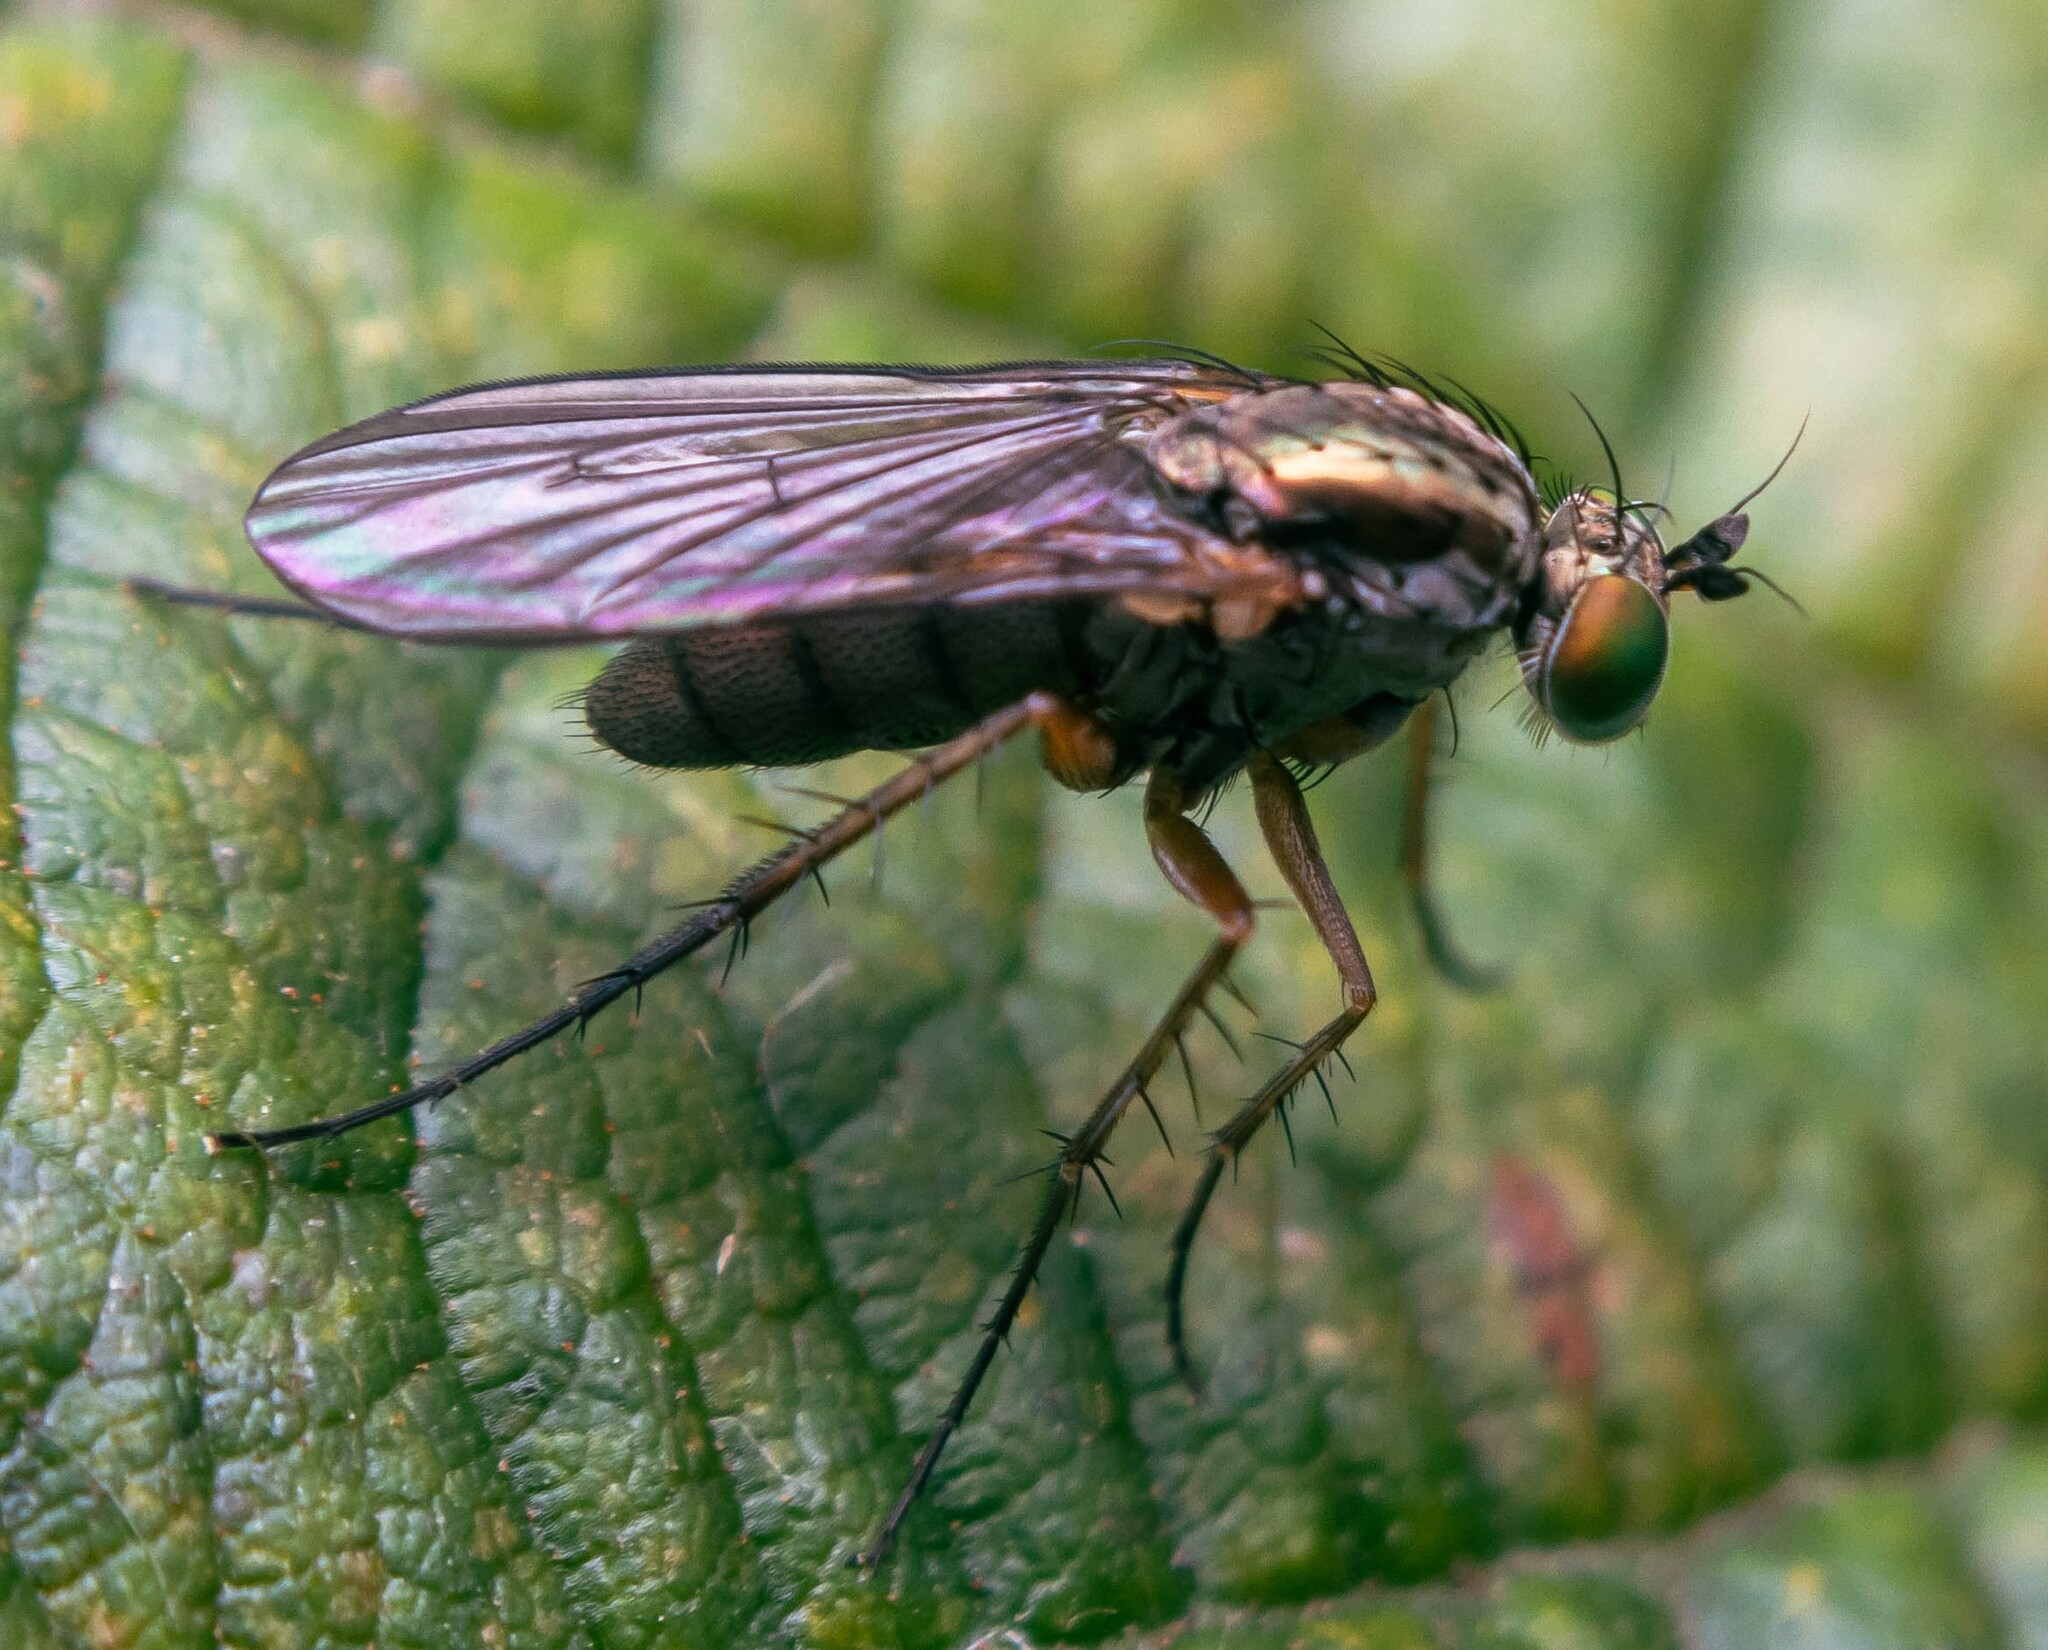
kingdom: Animalia
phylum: Arthropoda
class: Insecta
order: Diptera
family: Dolichopodidae
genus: Dolichopus
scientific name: Dolichopus griseipennis
